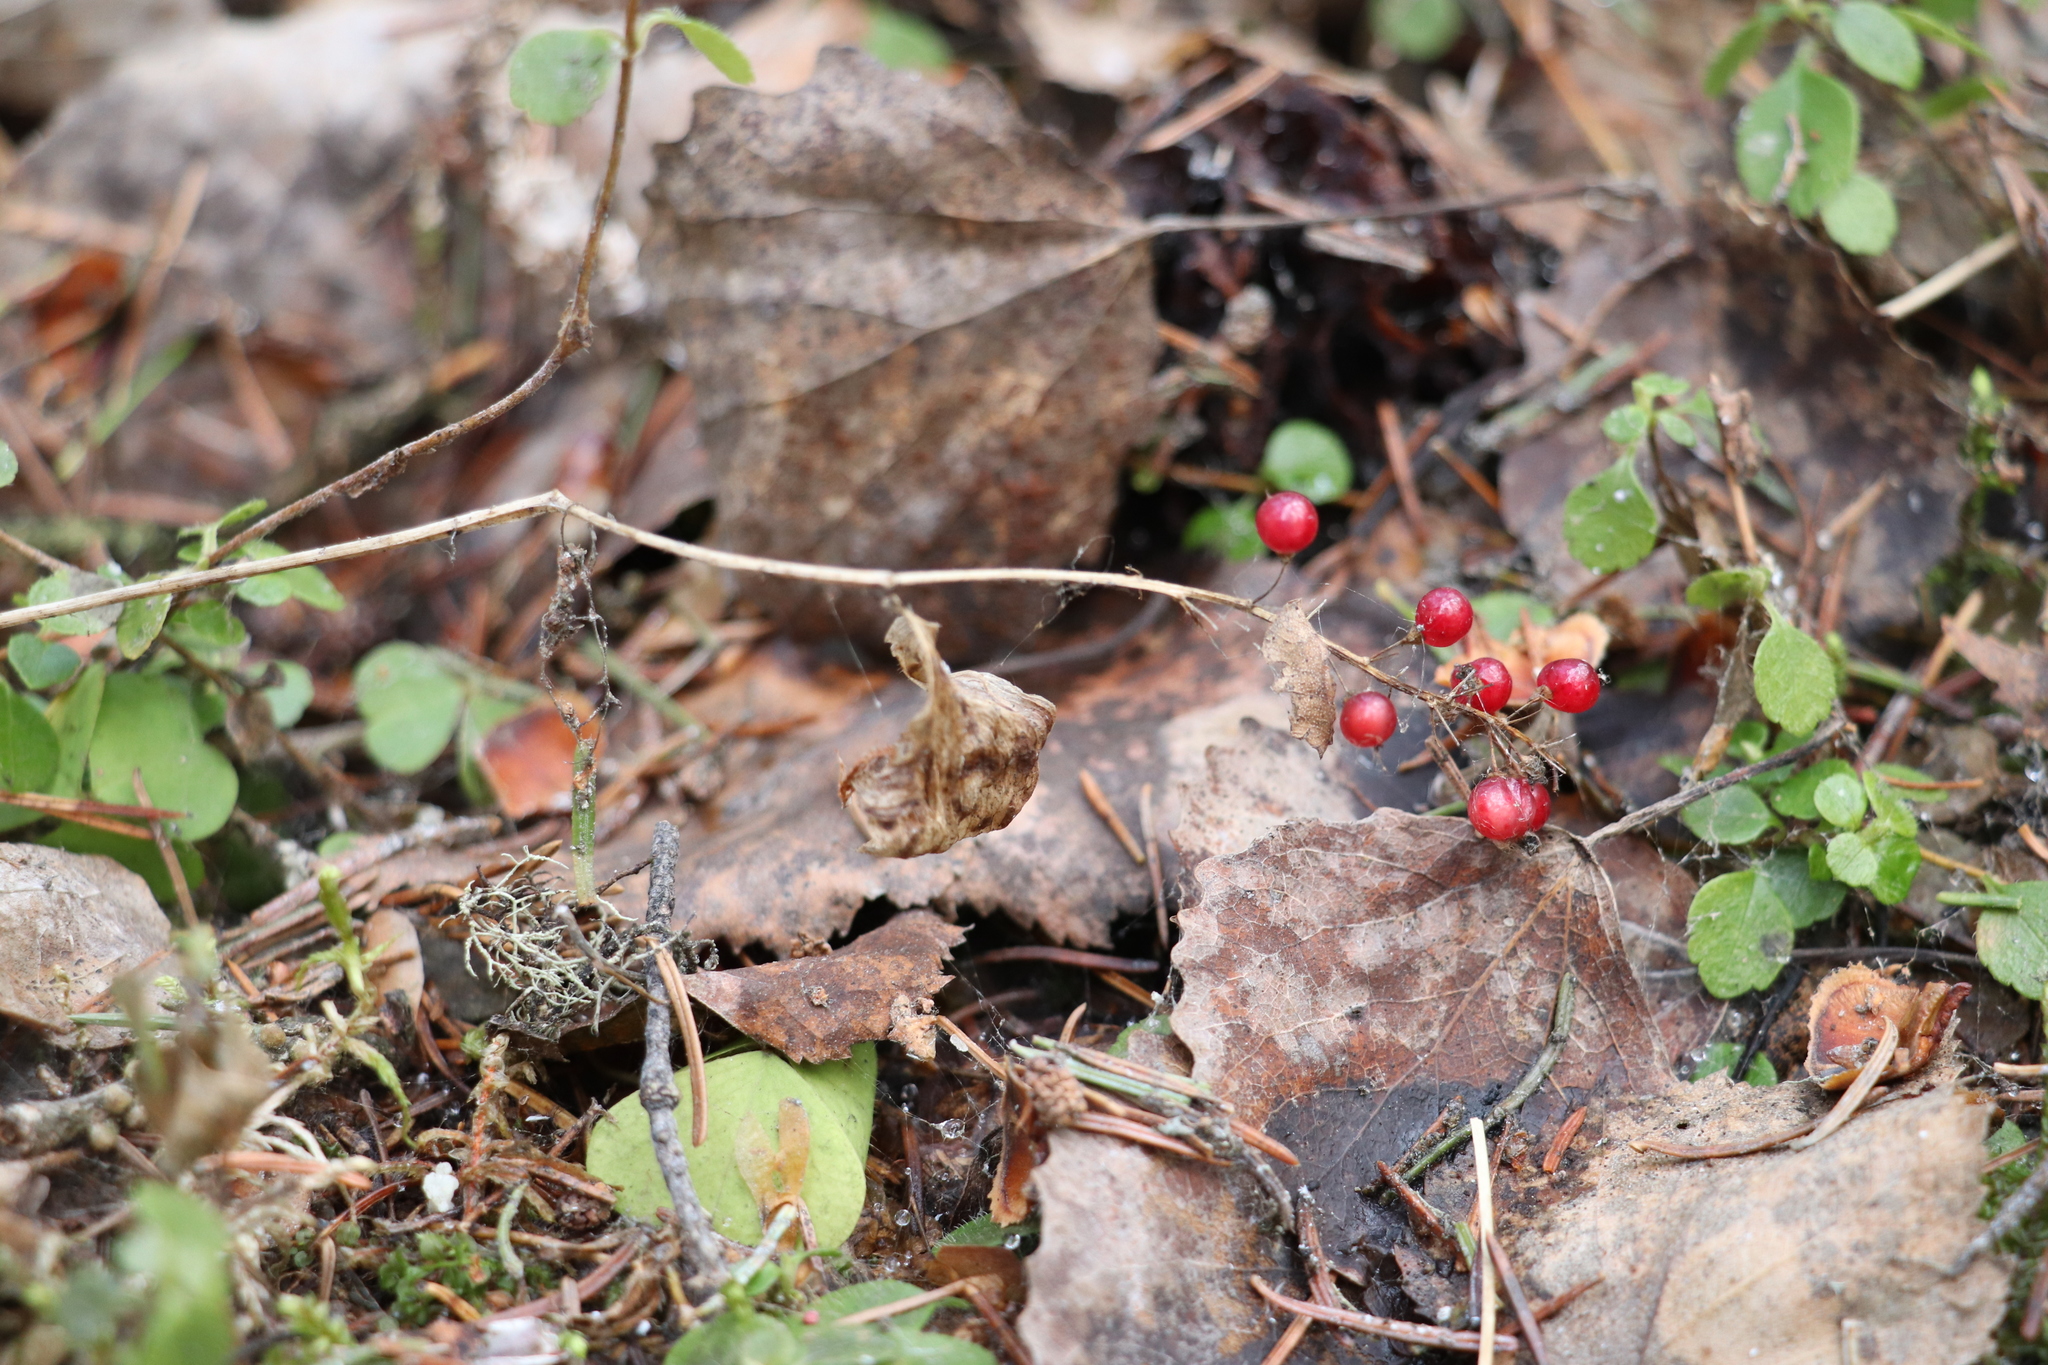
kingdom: Plantae
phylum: Tracheophyta
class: Liliopsida
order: Asparagales
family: Asparagaceae
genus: Maianthemum
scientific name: Maianthemum bifolium
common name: May lily
